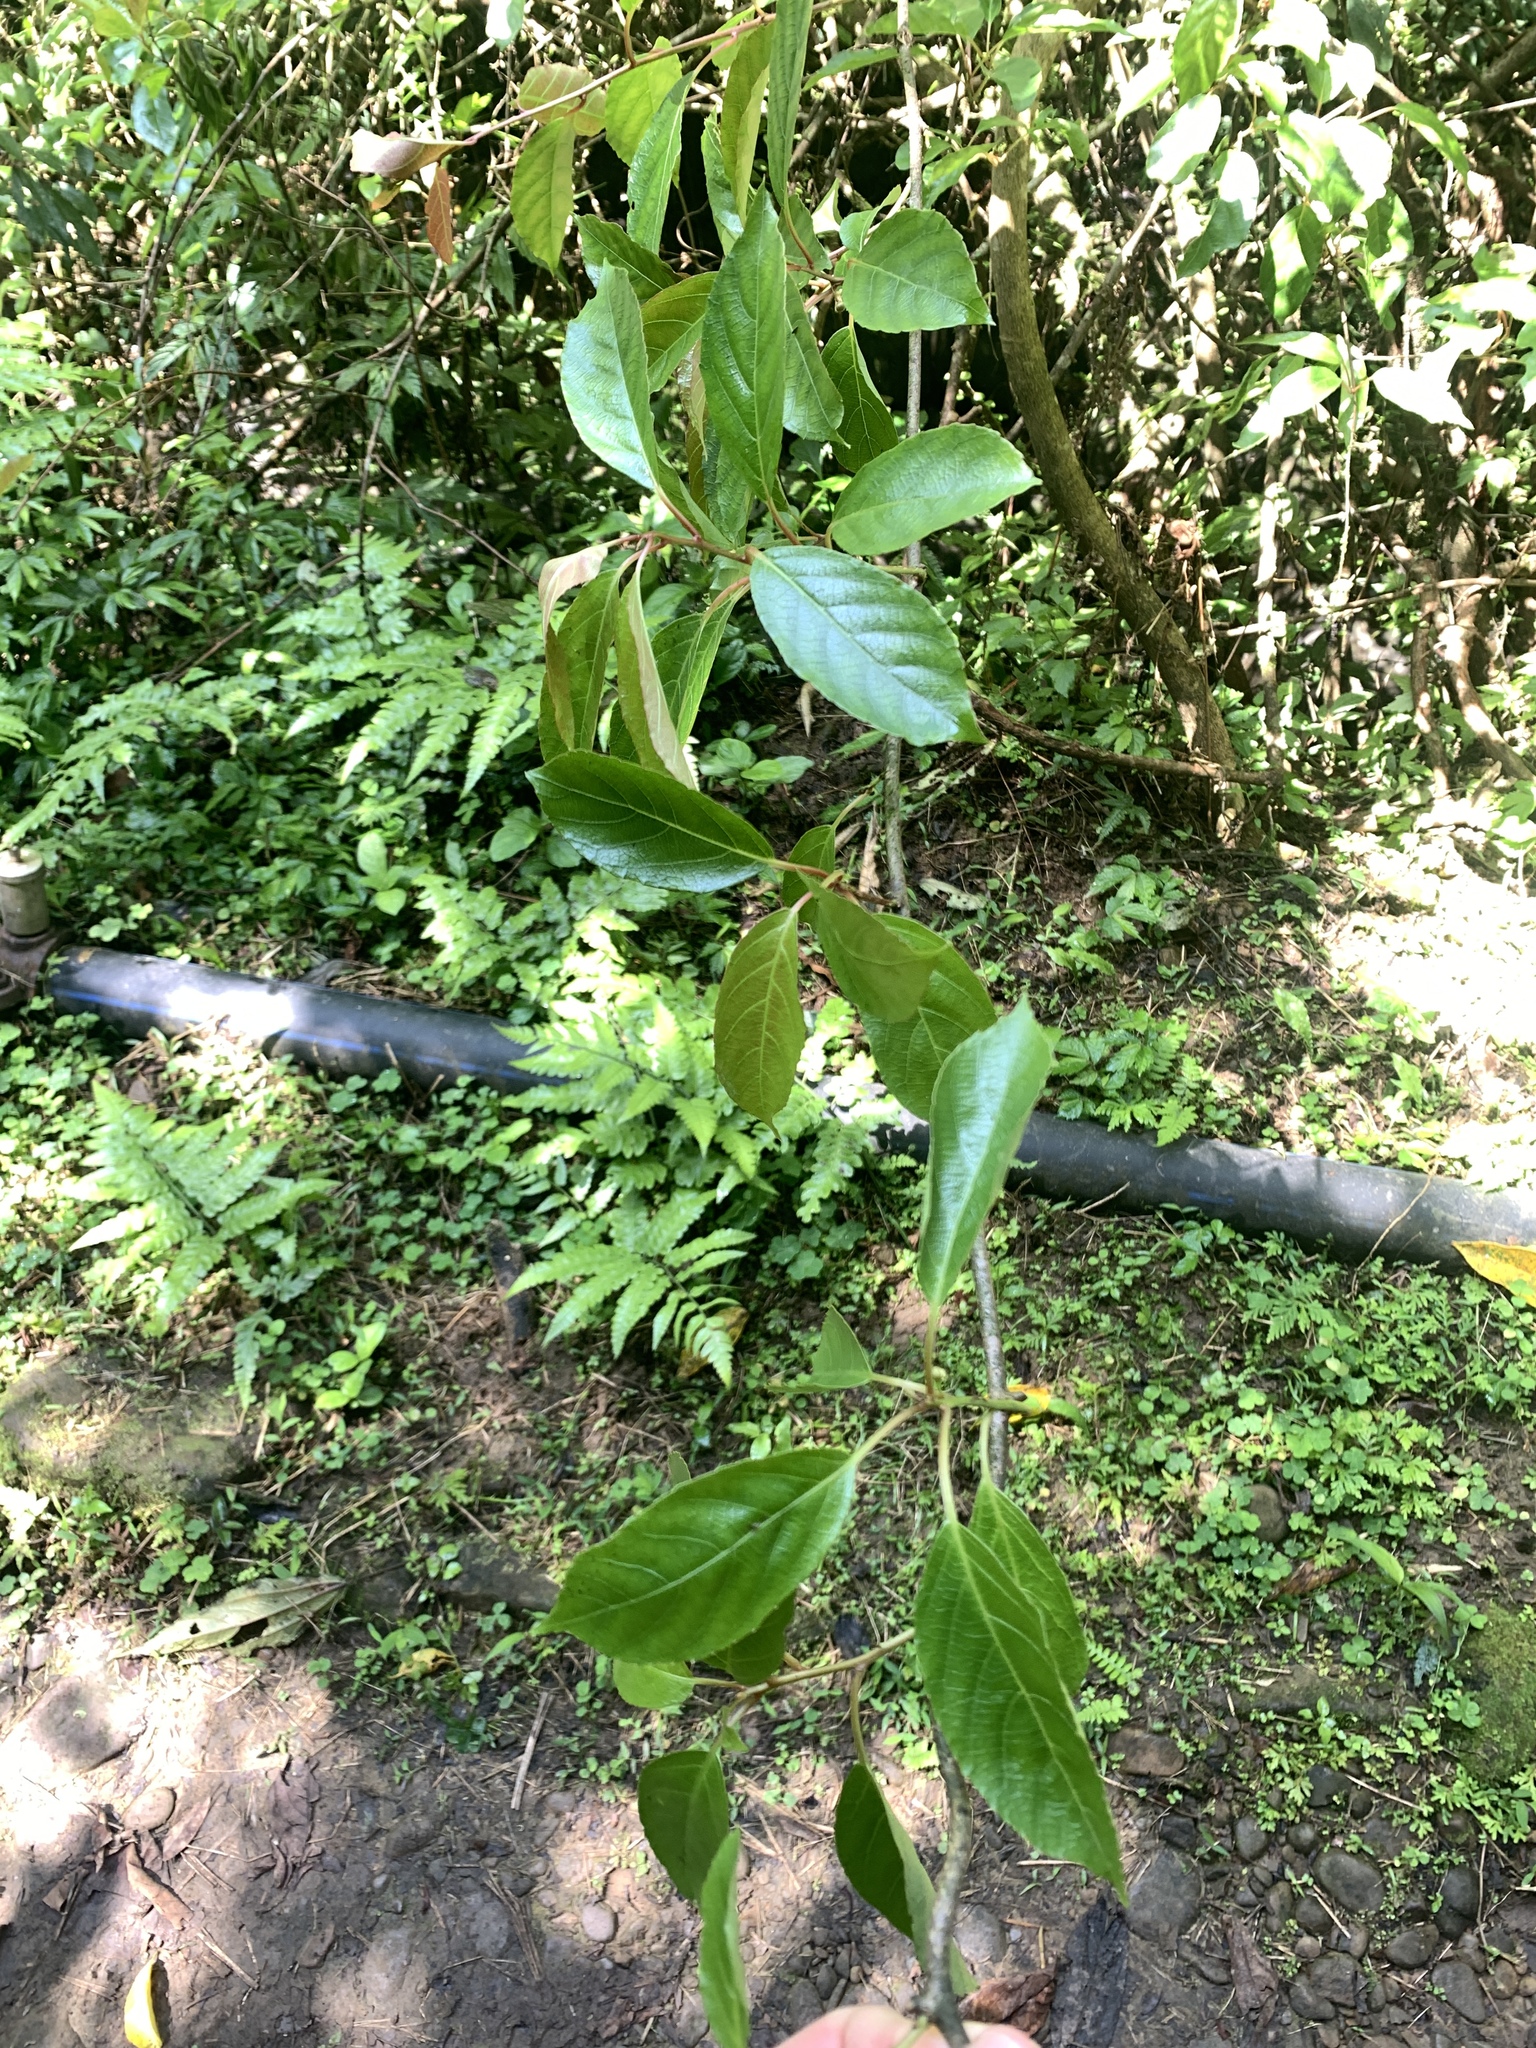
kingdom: Plantae
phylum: Tracheophyta
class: Magnoliopsida
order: Ericales
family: Actinidiaceae
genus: Actinidia
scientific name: Actinidia rufa
